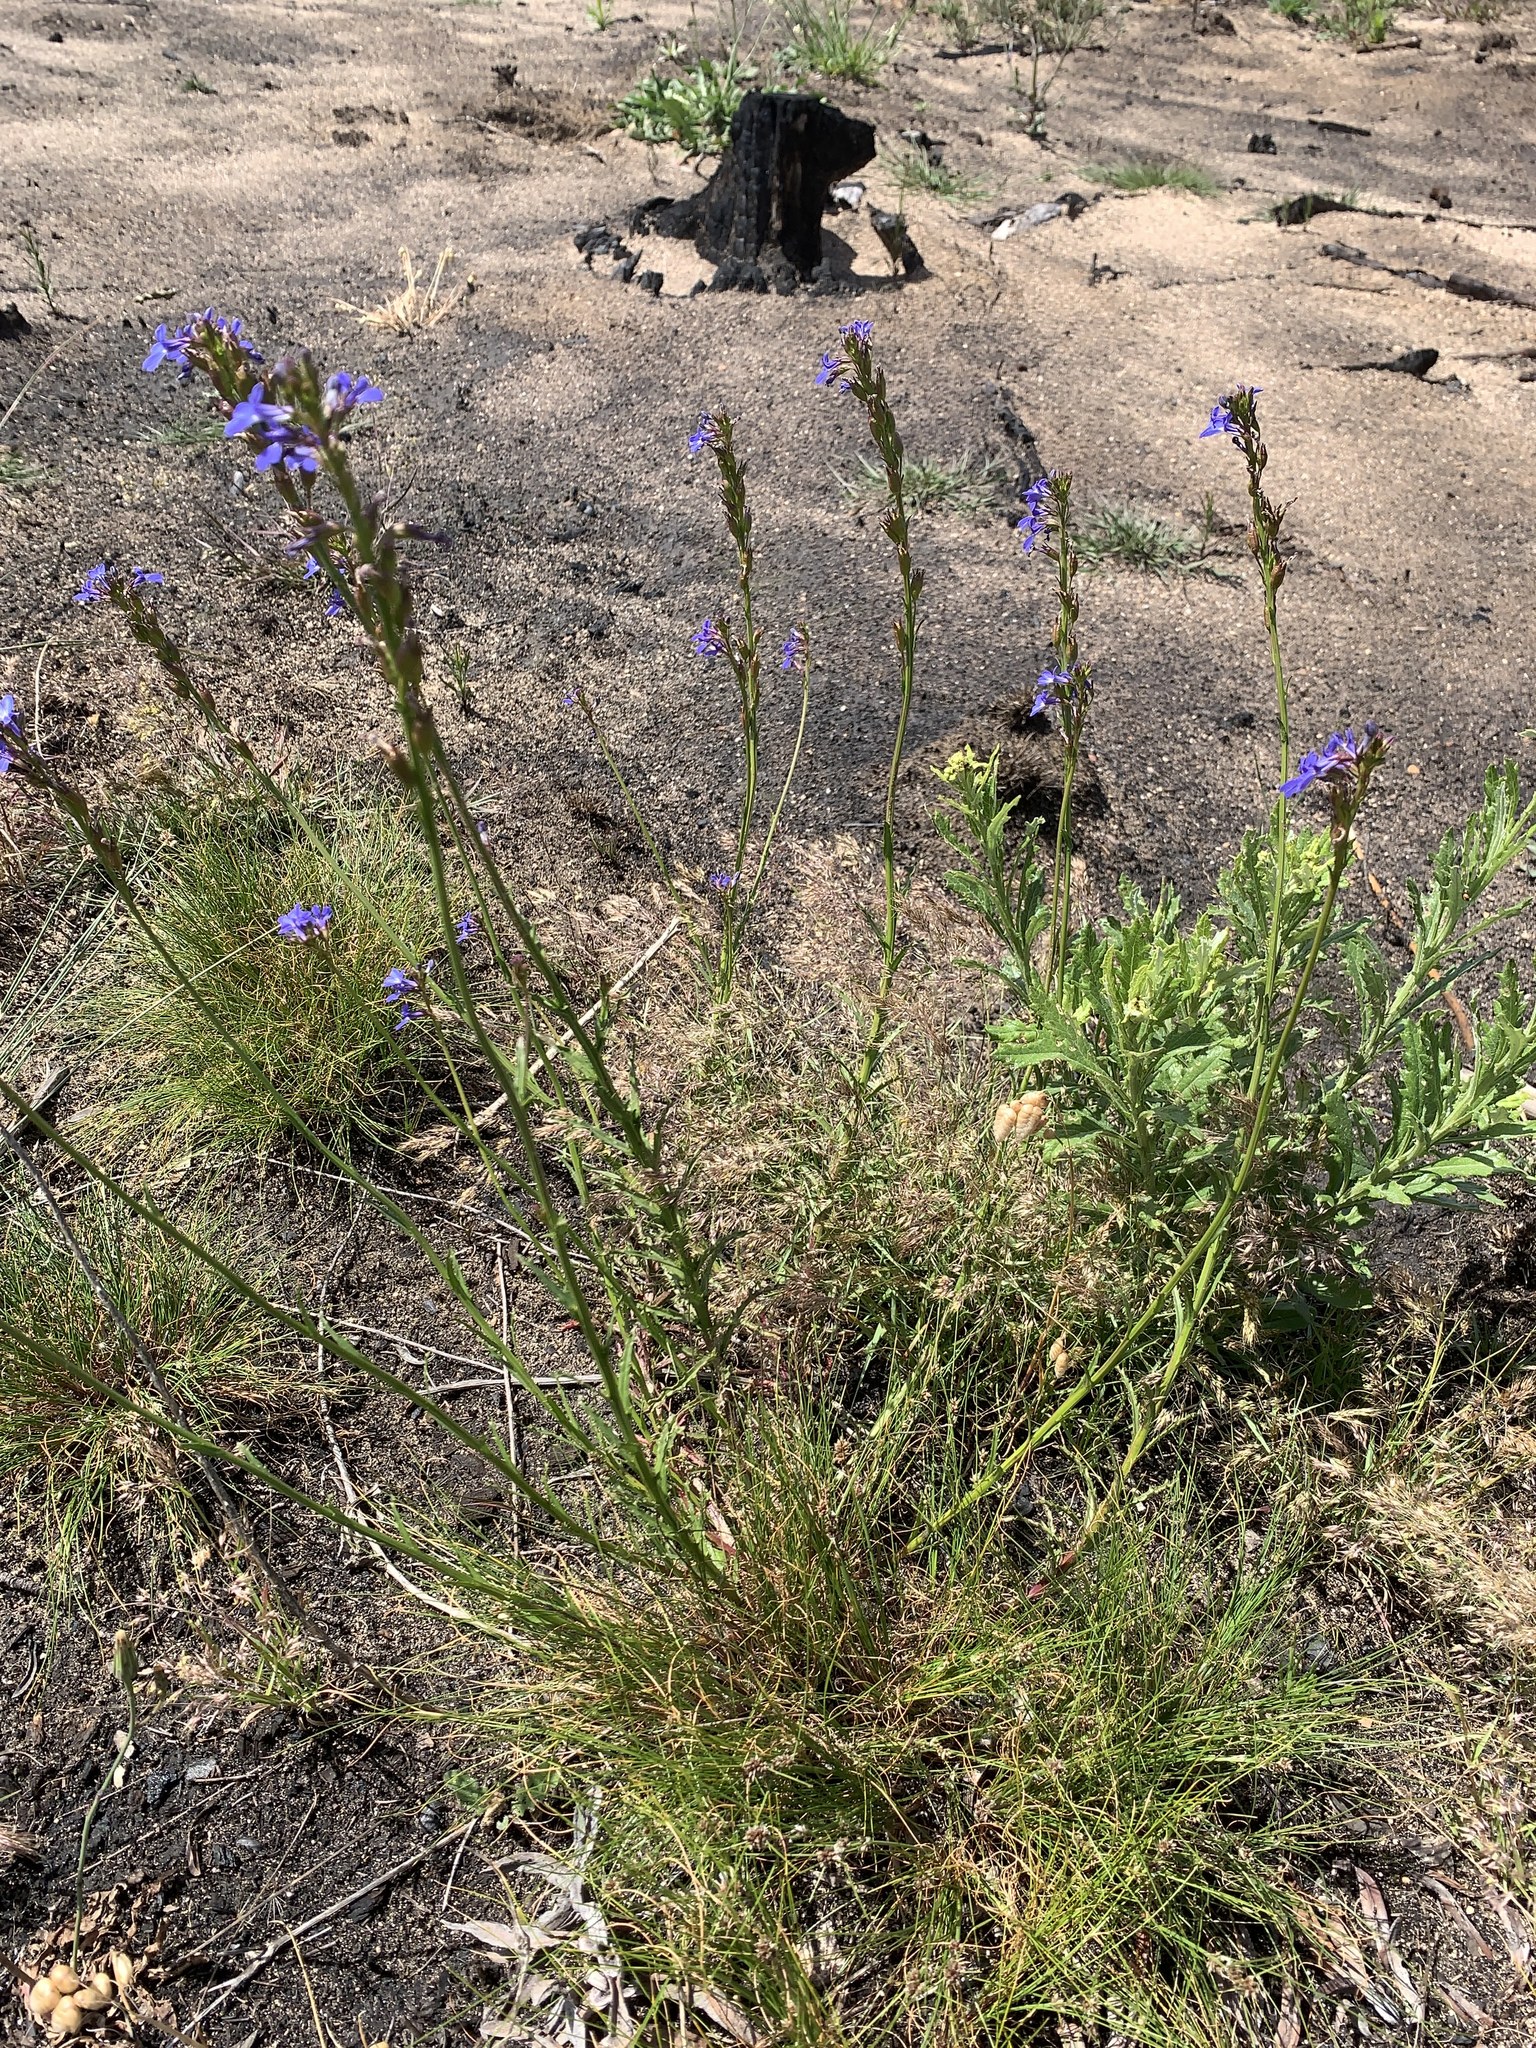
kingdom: Plantae
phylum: Tracheophyta
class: Magnoliopsida
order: Asterales
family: Campanulaceae
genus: Lobelia
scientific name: Lobelia comosa
